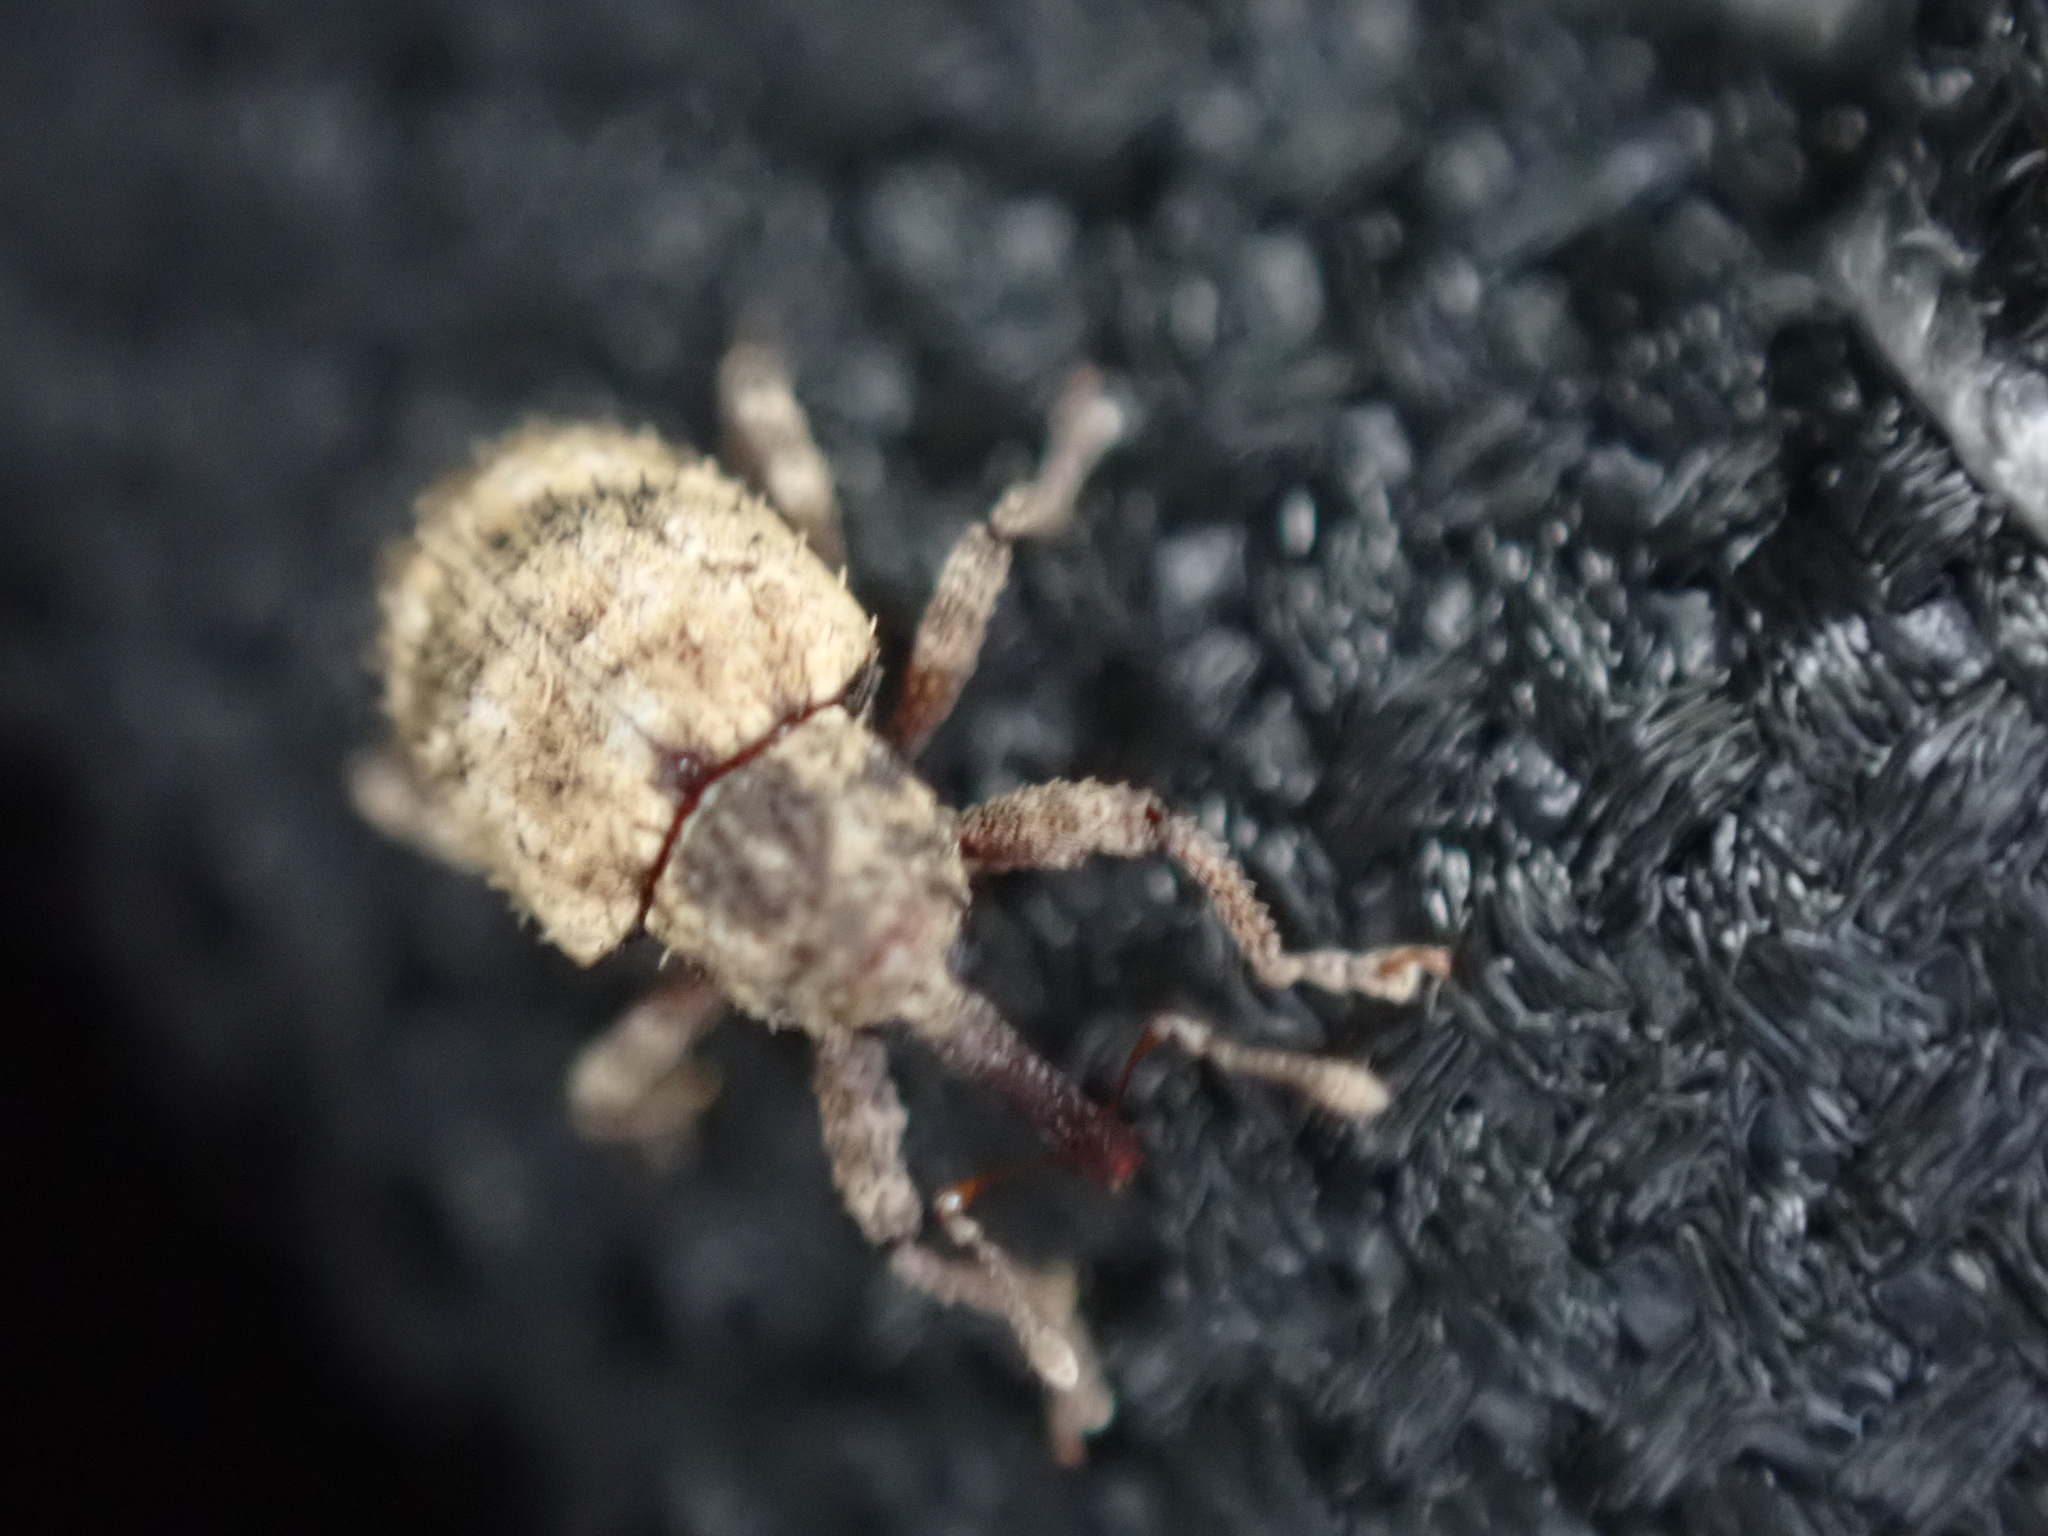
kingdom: Animalia
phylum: Arthropoda
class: Insecta
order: Coleoptera
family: Curculionidae
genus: Conotrachelus
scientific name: Conotrachelus erinaceus
